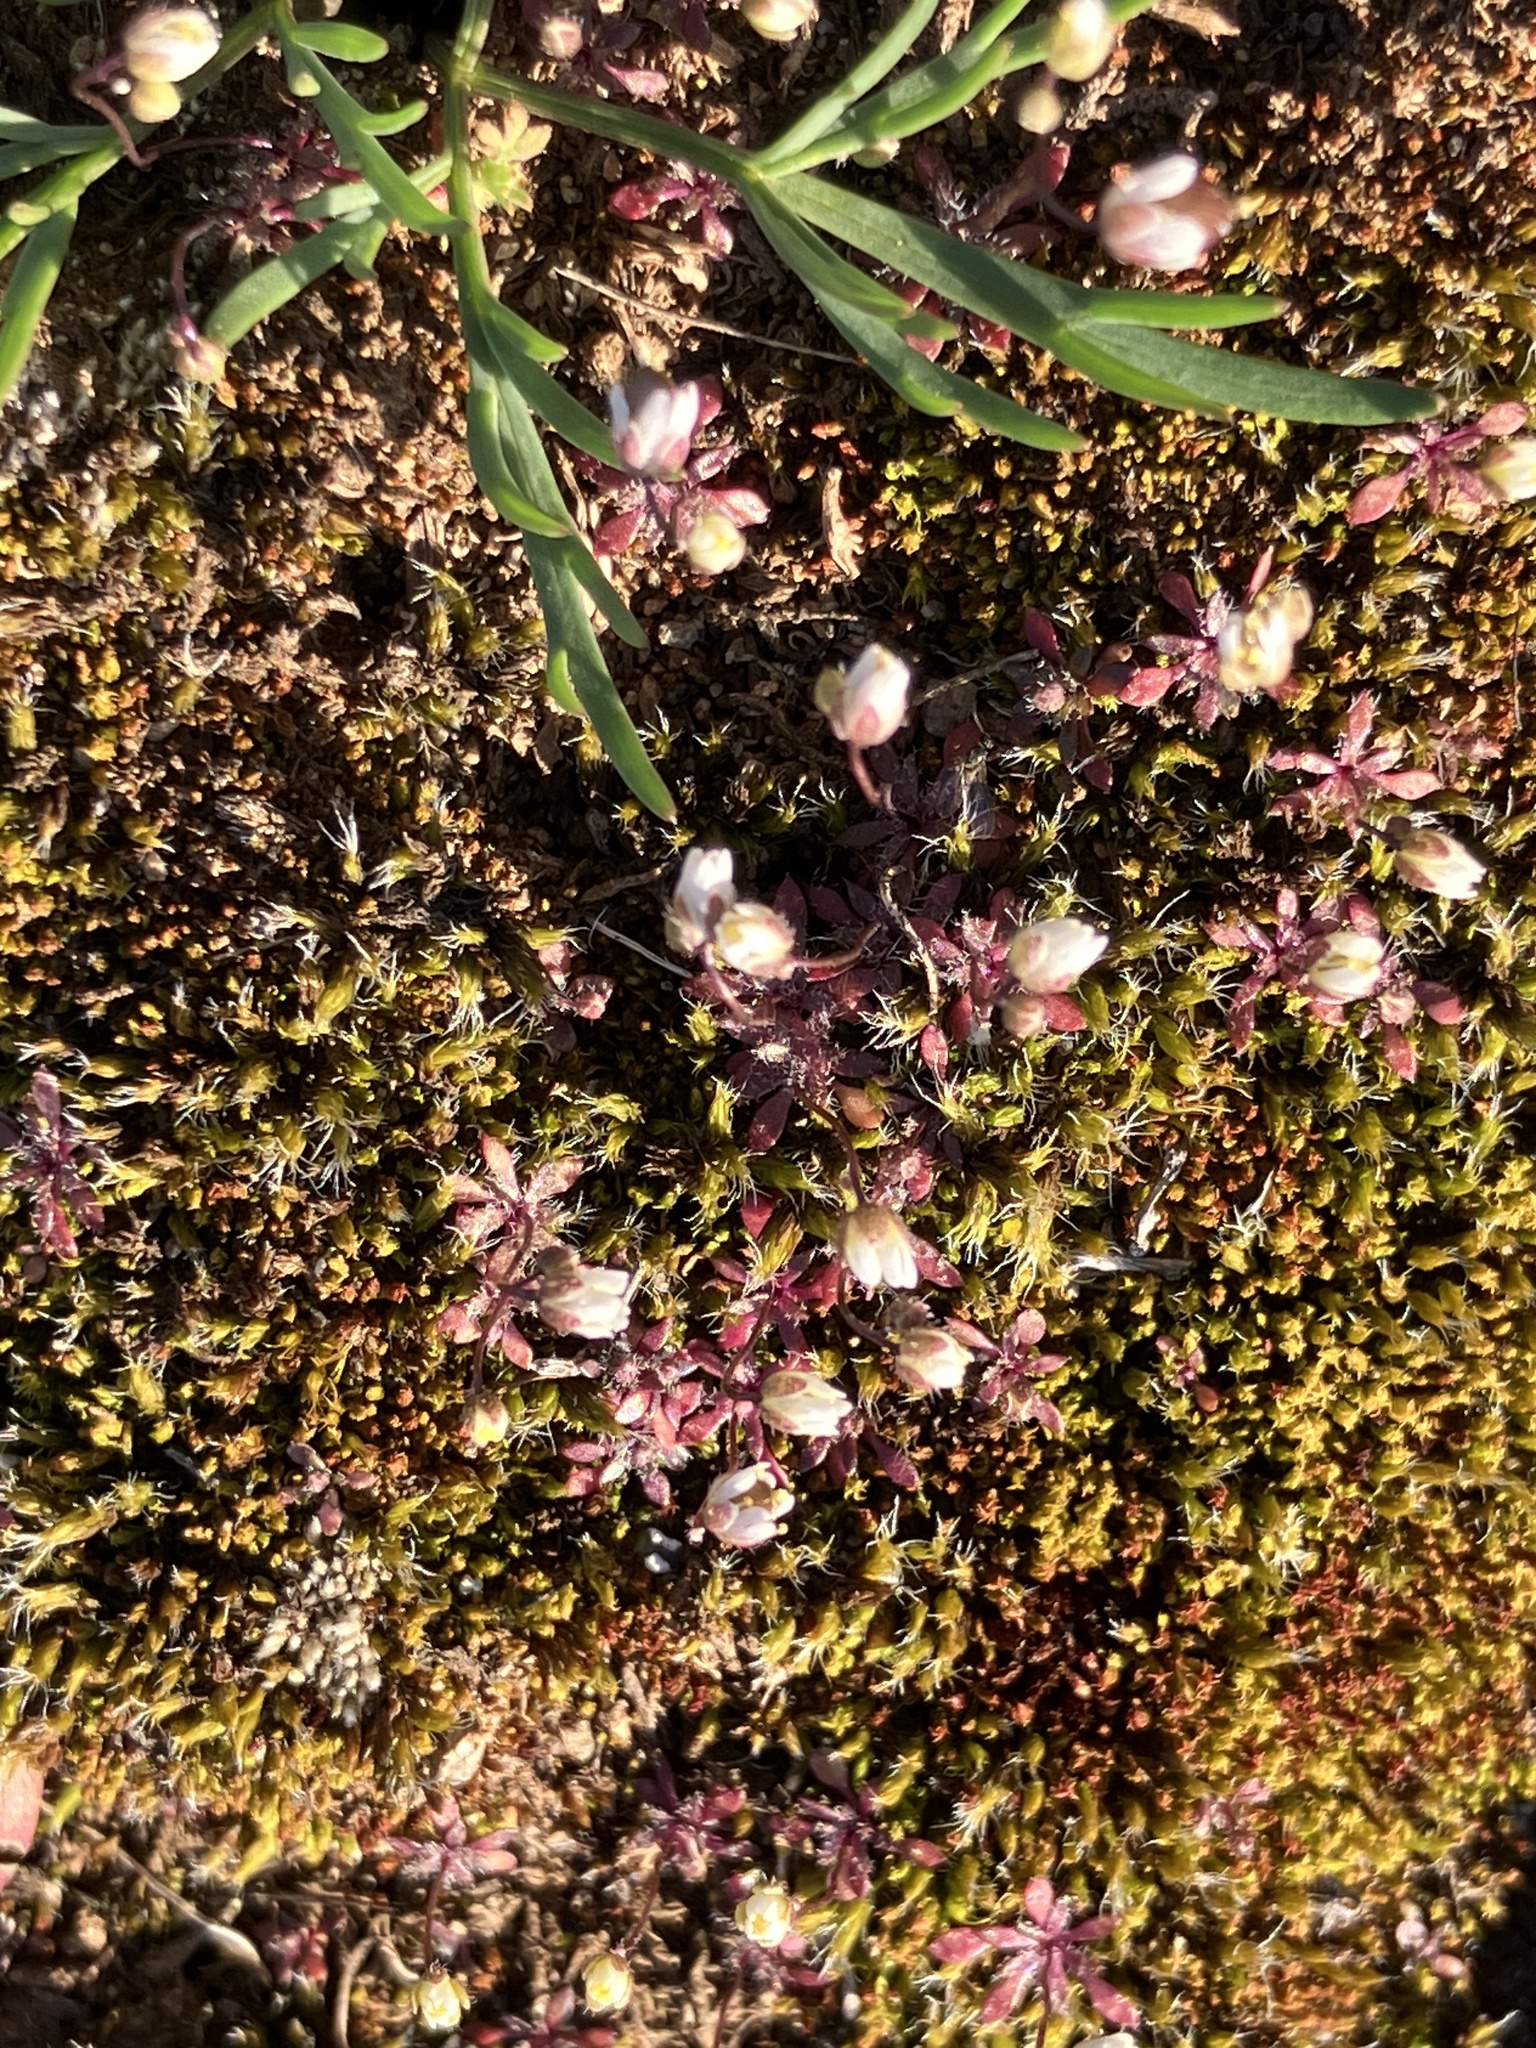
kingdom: Plantae
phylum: Tracheophyta
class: Magnoliopsida
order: Brassicales
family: Brassicaceae
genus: Draba
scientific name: Draba verna
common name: Spring draba
